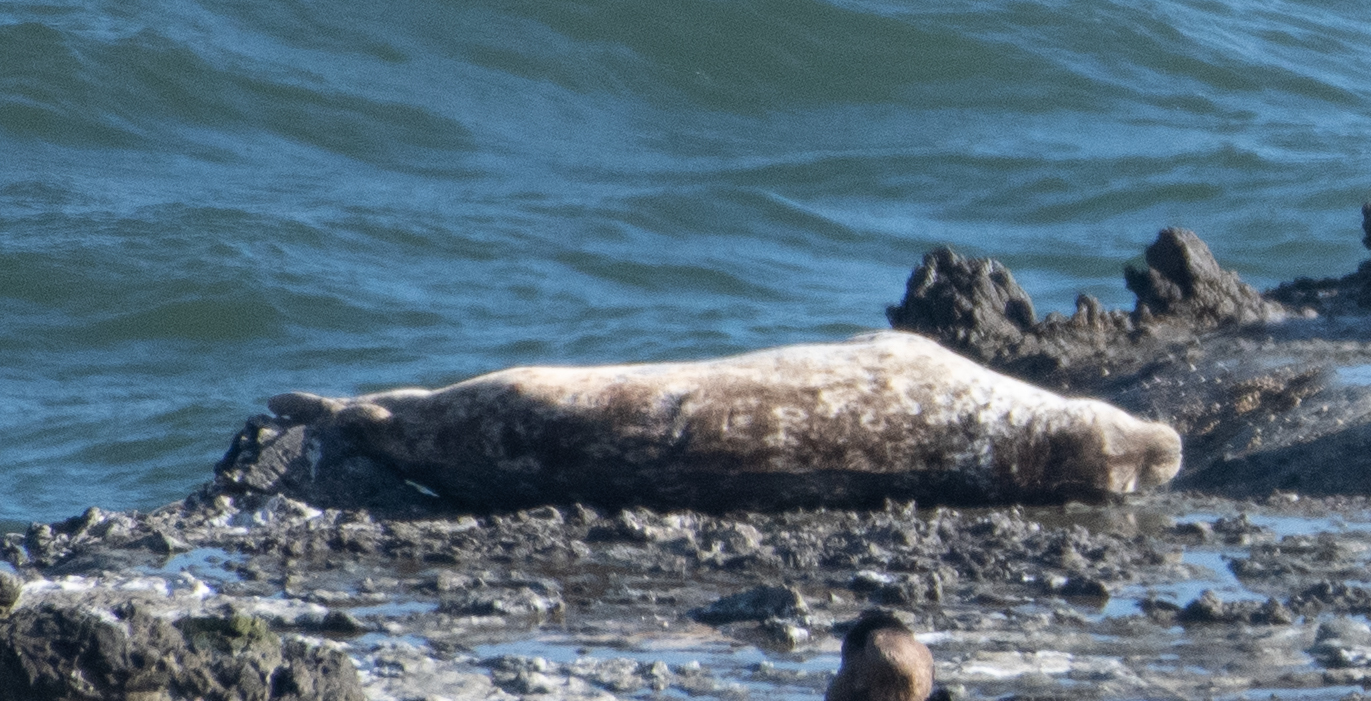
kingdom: Animalia
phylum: Chordata
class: Mammalia
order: Carnivora
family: Phocidae
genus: Phoca
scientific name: Phoca vitulina
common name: Harbor seal
